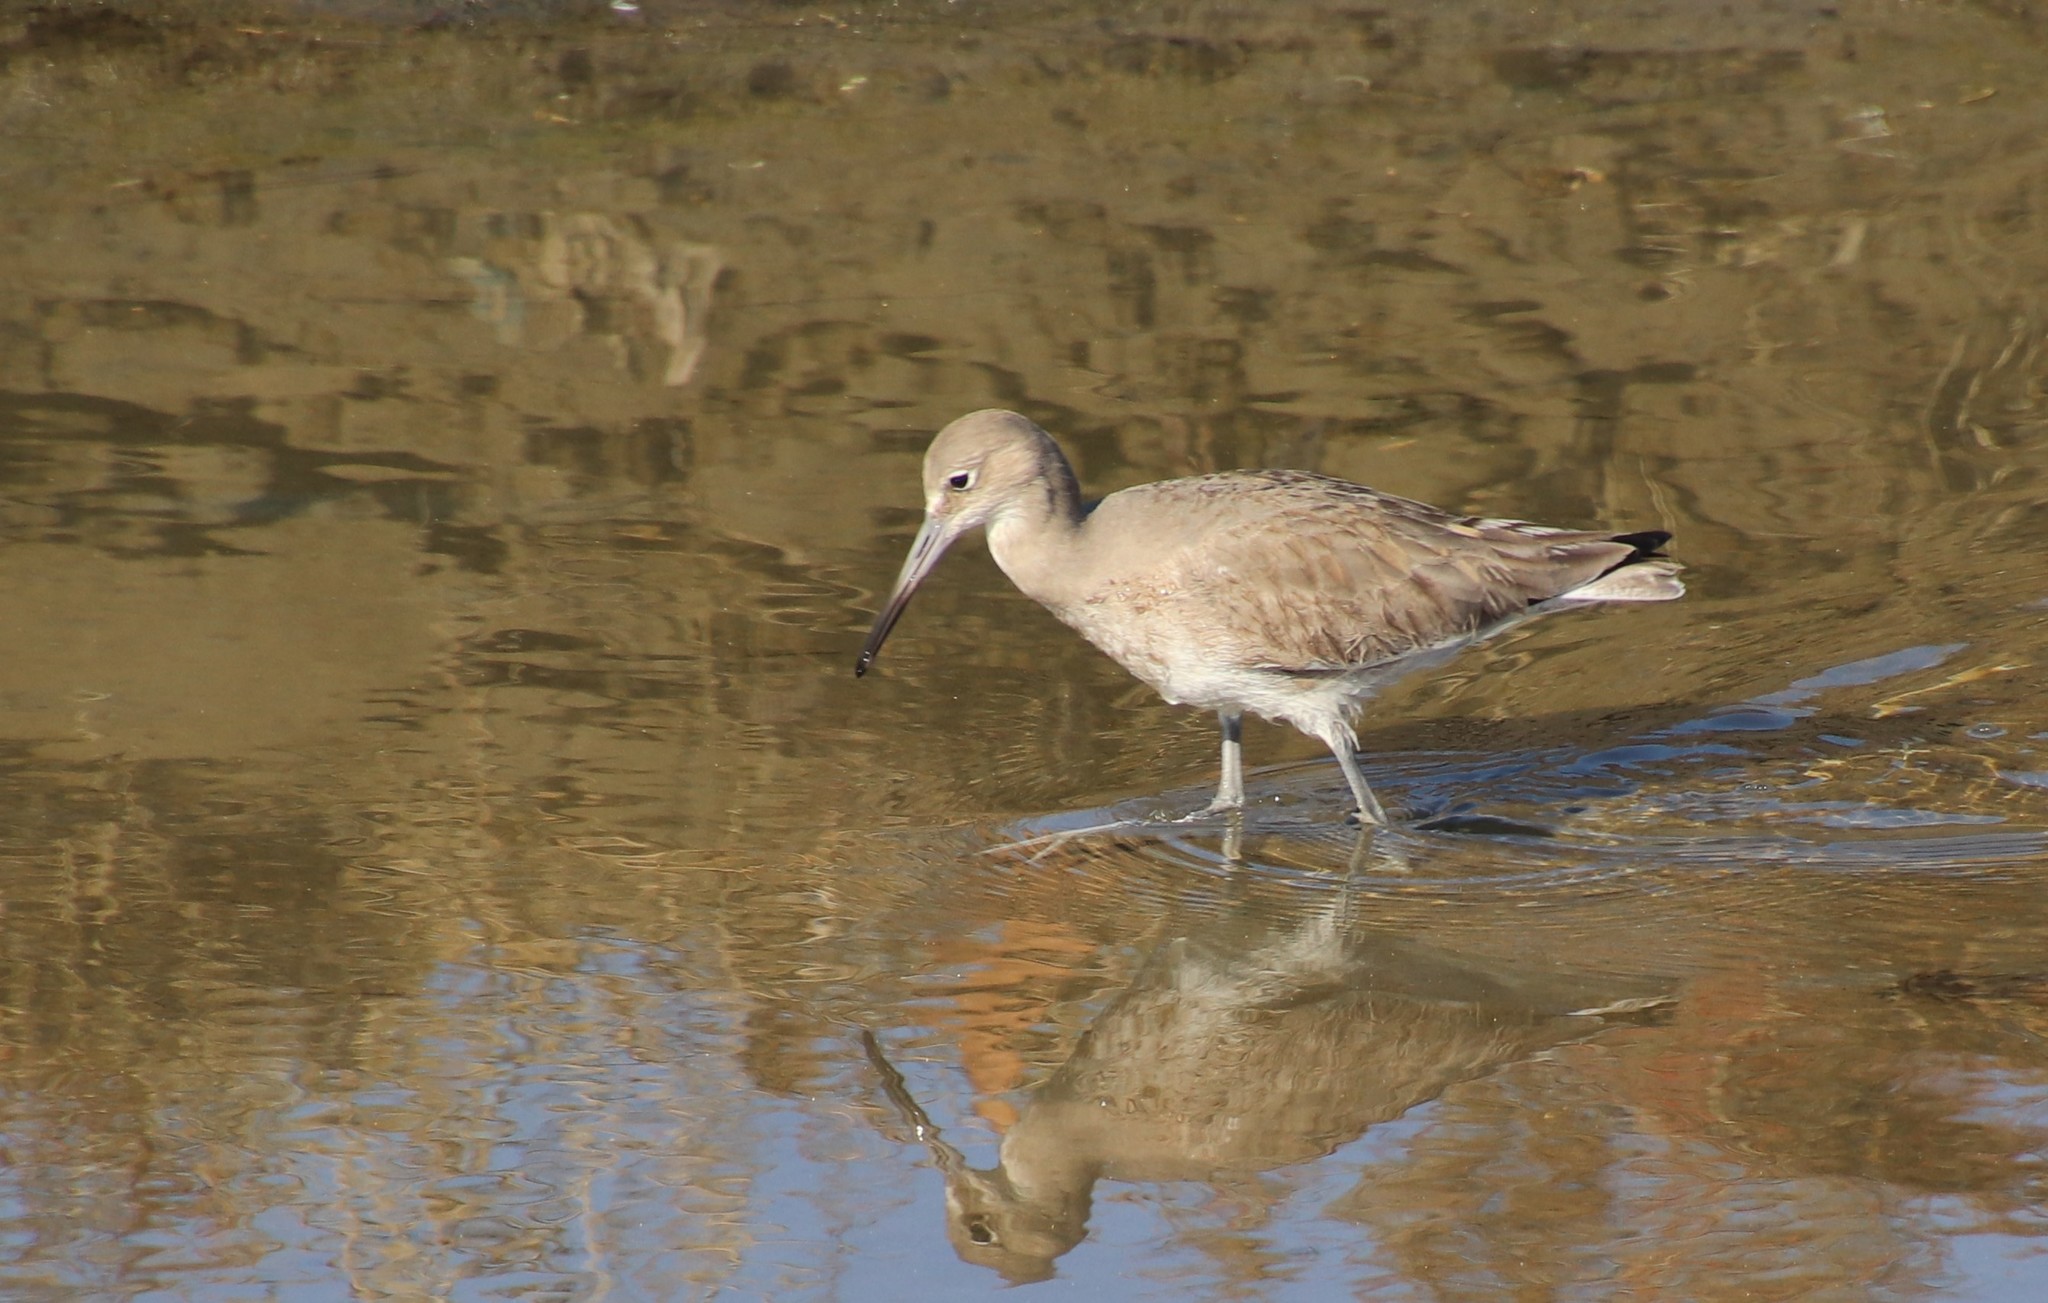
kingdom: Animalia
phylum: Chordata
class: Aves
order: Charadriiformes
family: Scolopacidae
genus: Tringa
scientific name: Tringa semipalmata
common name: Willet
